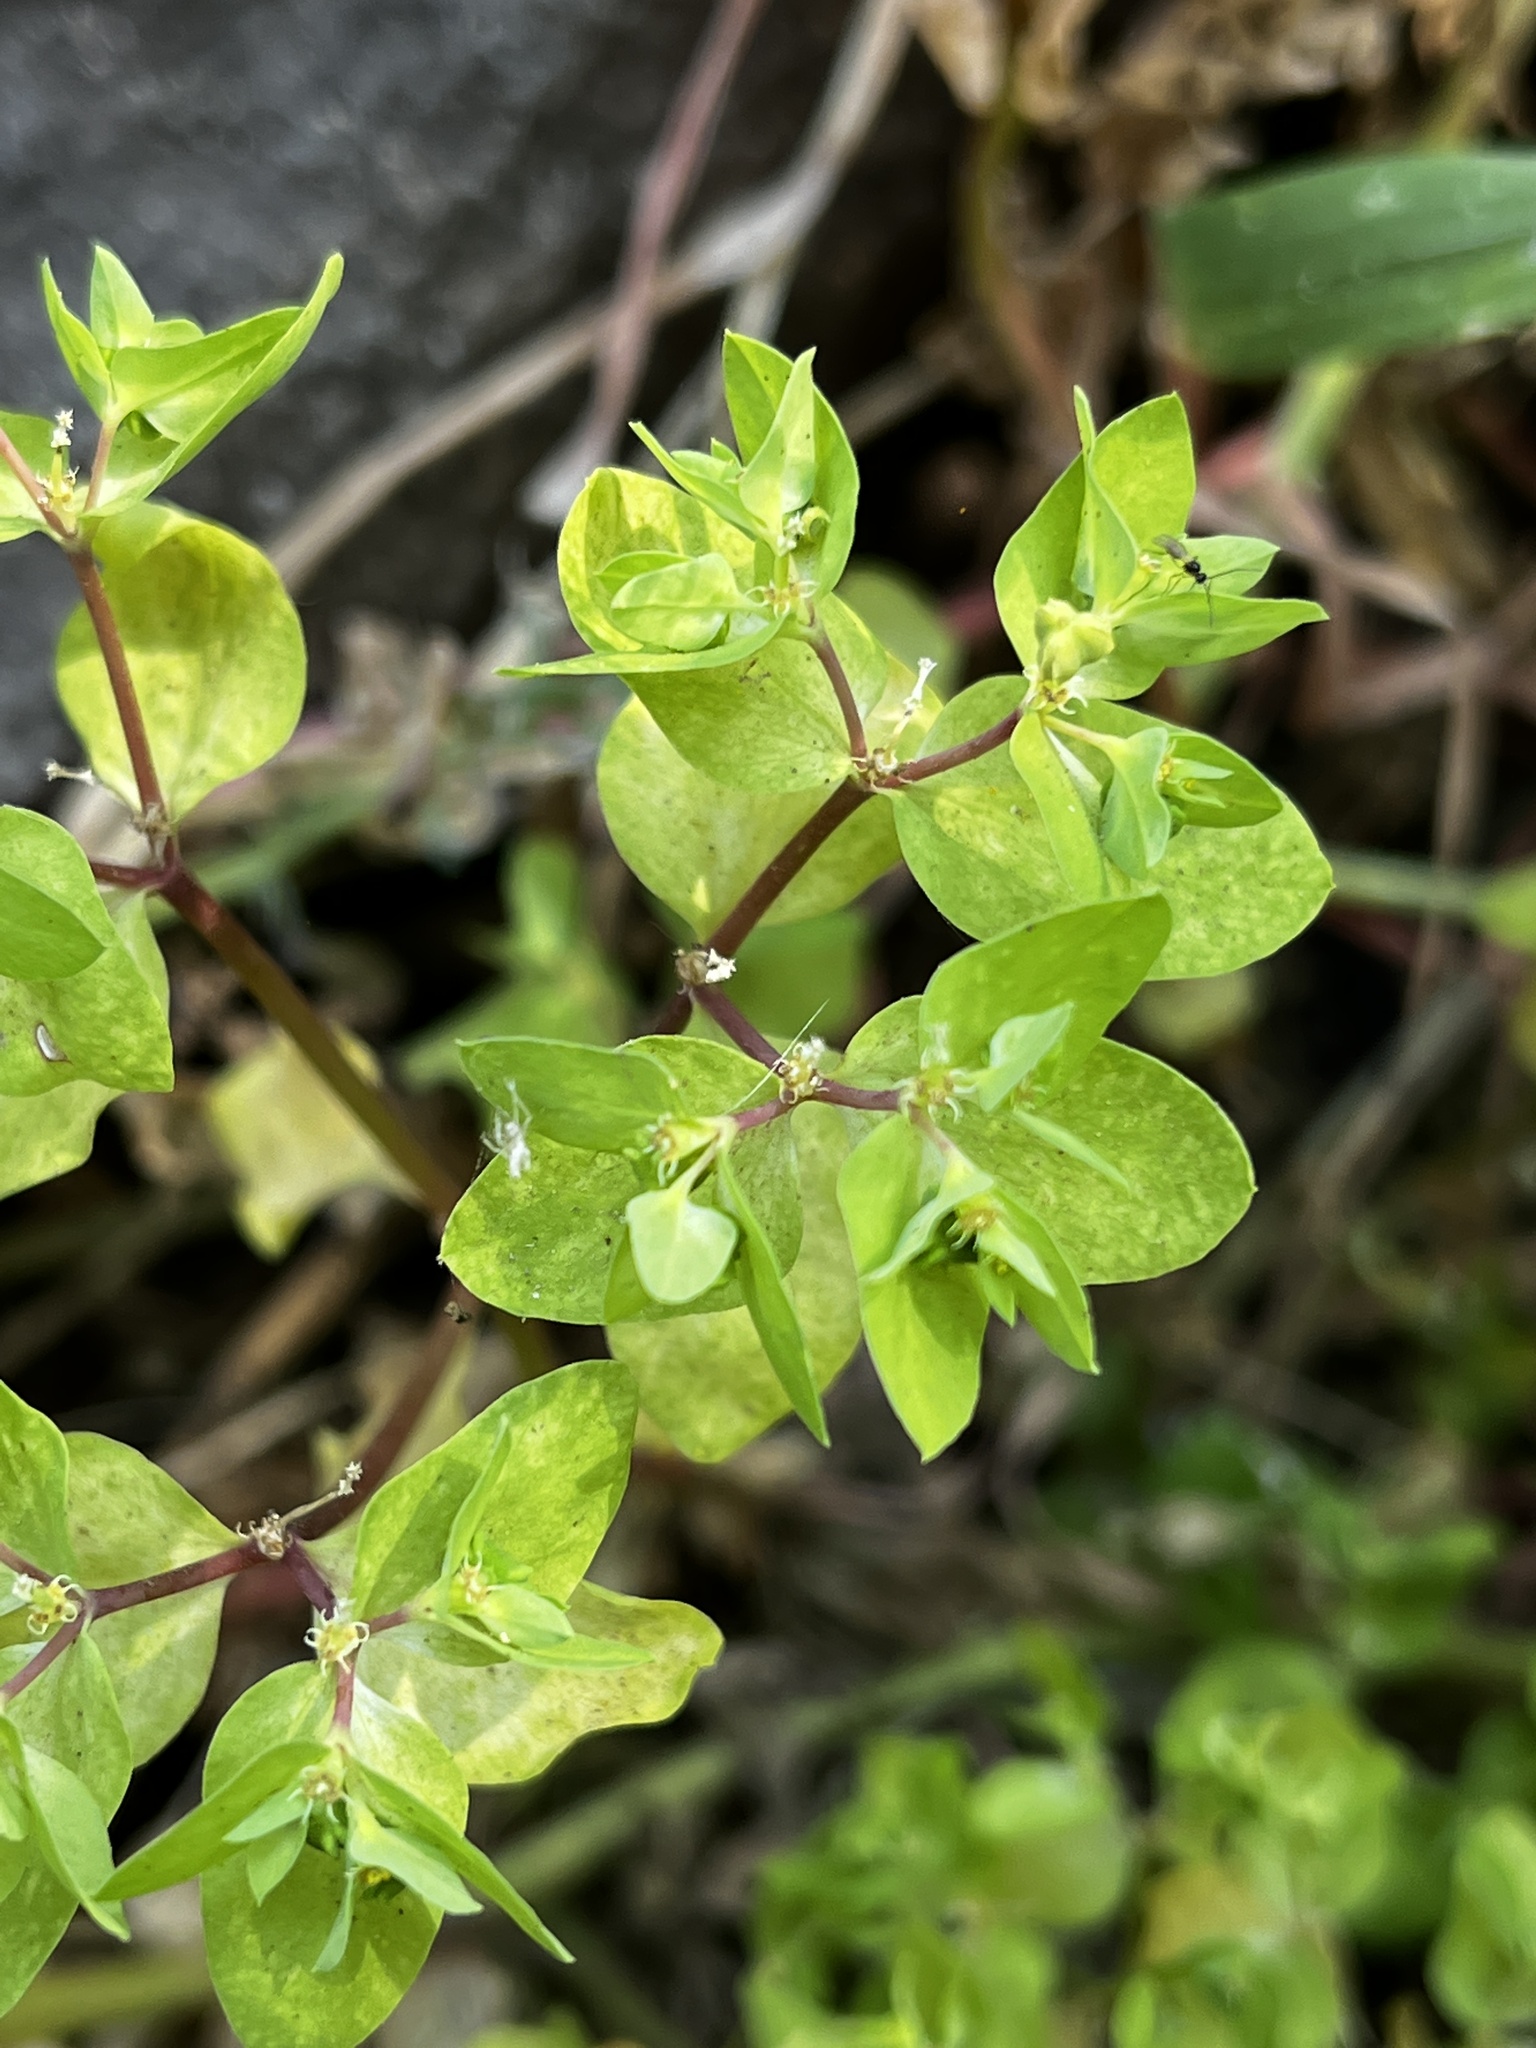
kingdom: Plantae
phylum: Tracheophyta
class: Magnoliopsida
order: Malpighiales
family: Euphorbiaceae
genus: Euphorbia
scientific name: Euphorbia peplus
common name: Petty spurge
